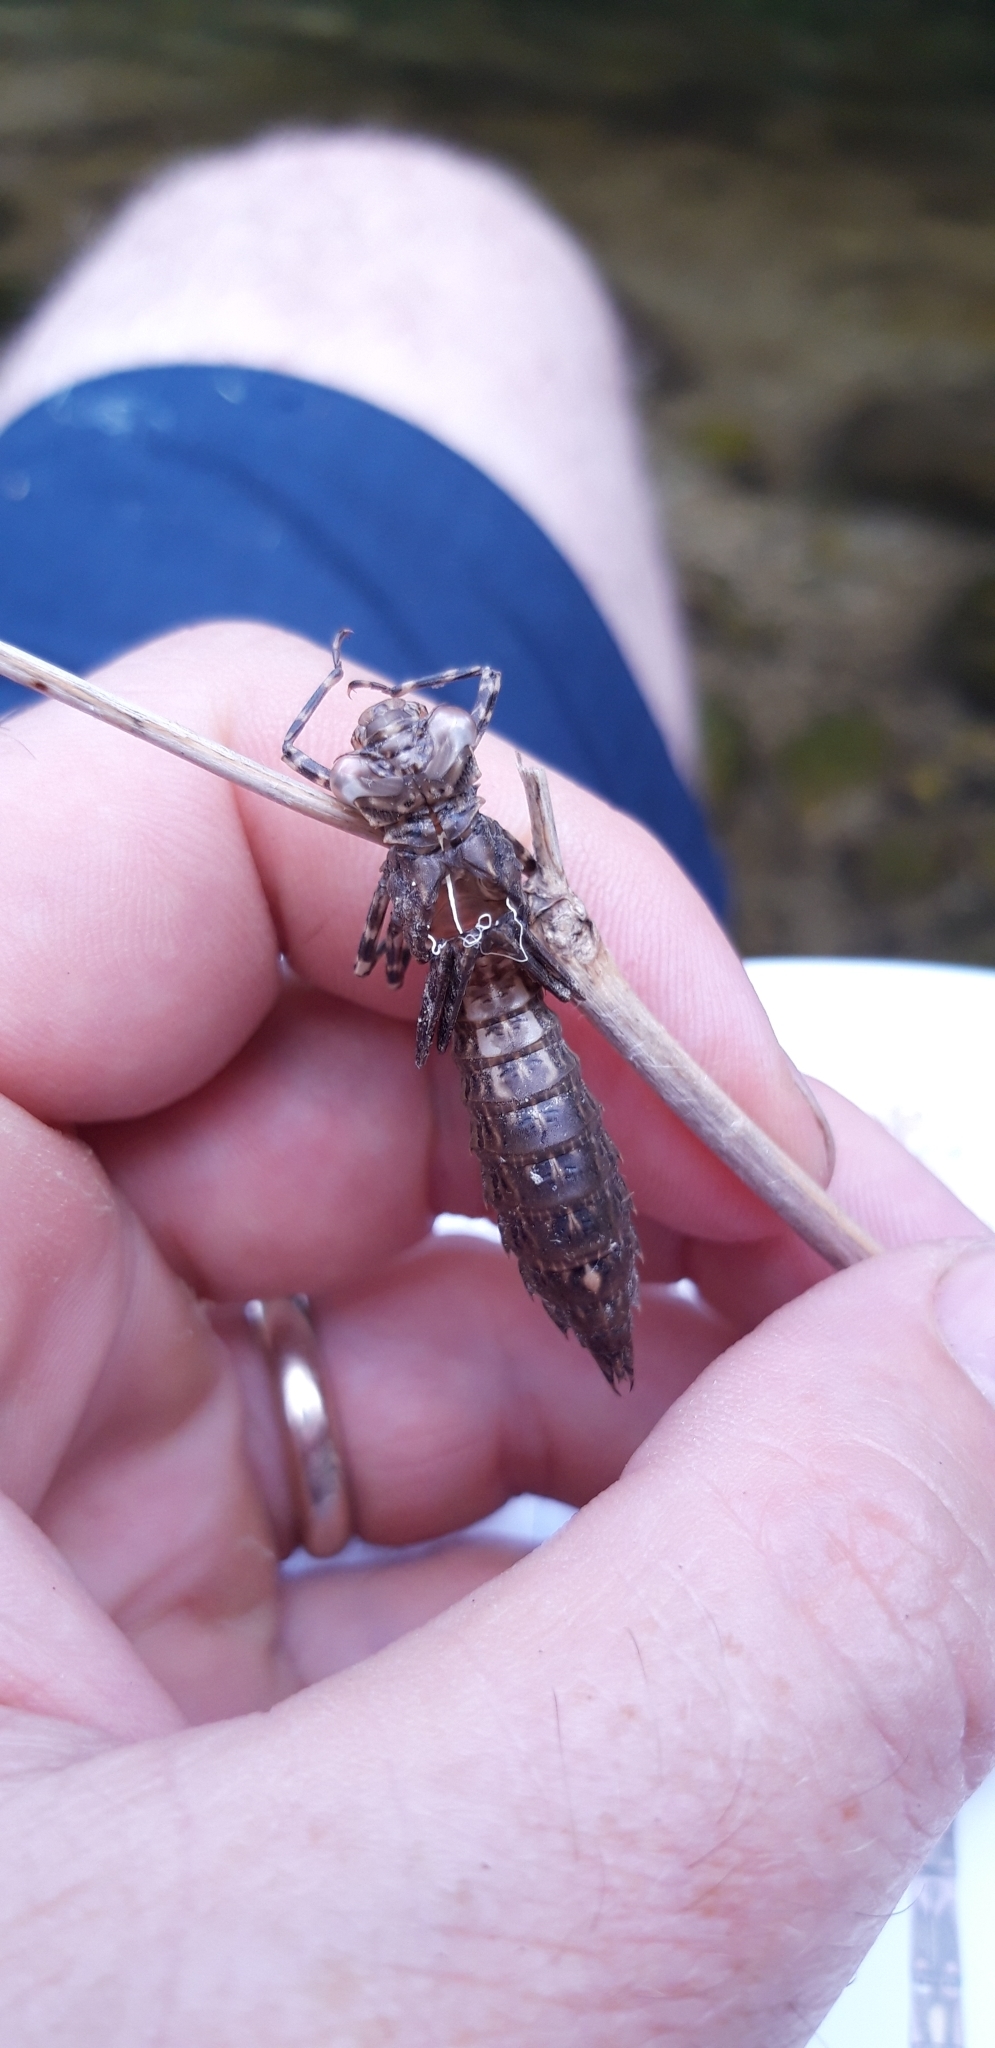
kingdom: Animalia
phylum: Arthropoda
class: Insecta
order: Odonata
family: Aeshnidae
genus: Boyeria
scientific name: Boyeria irene
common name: Western spectre
